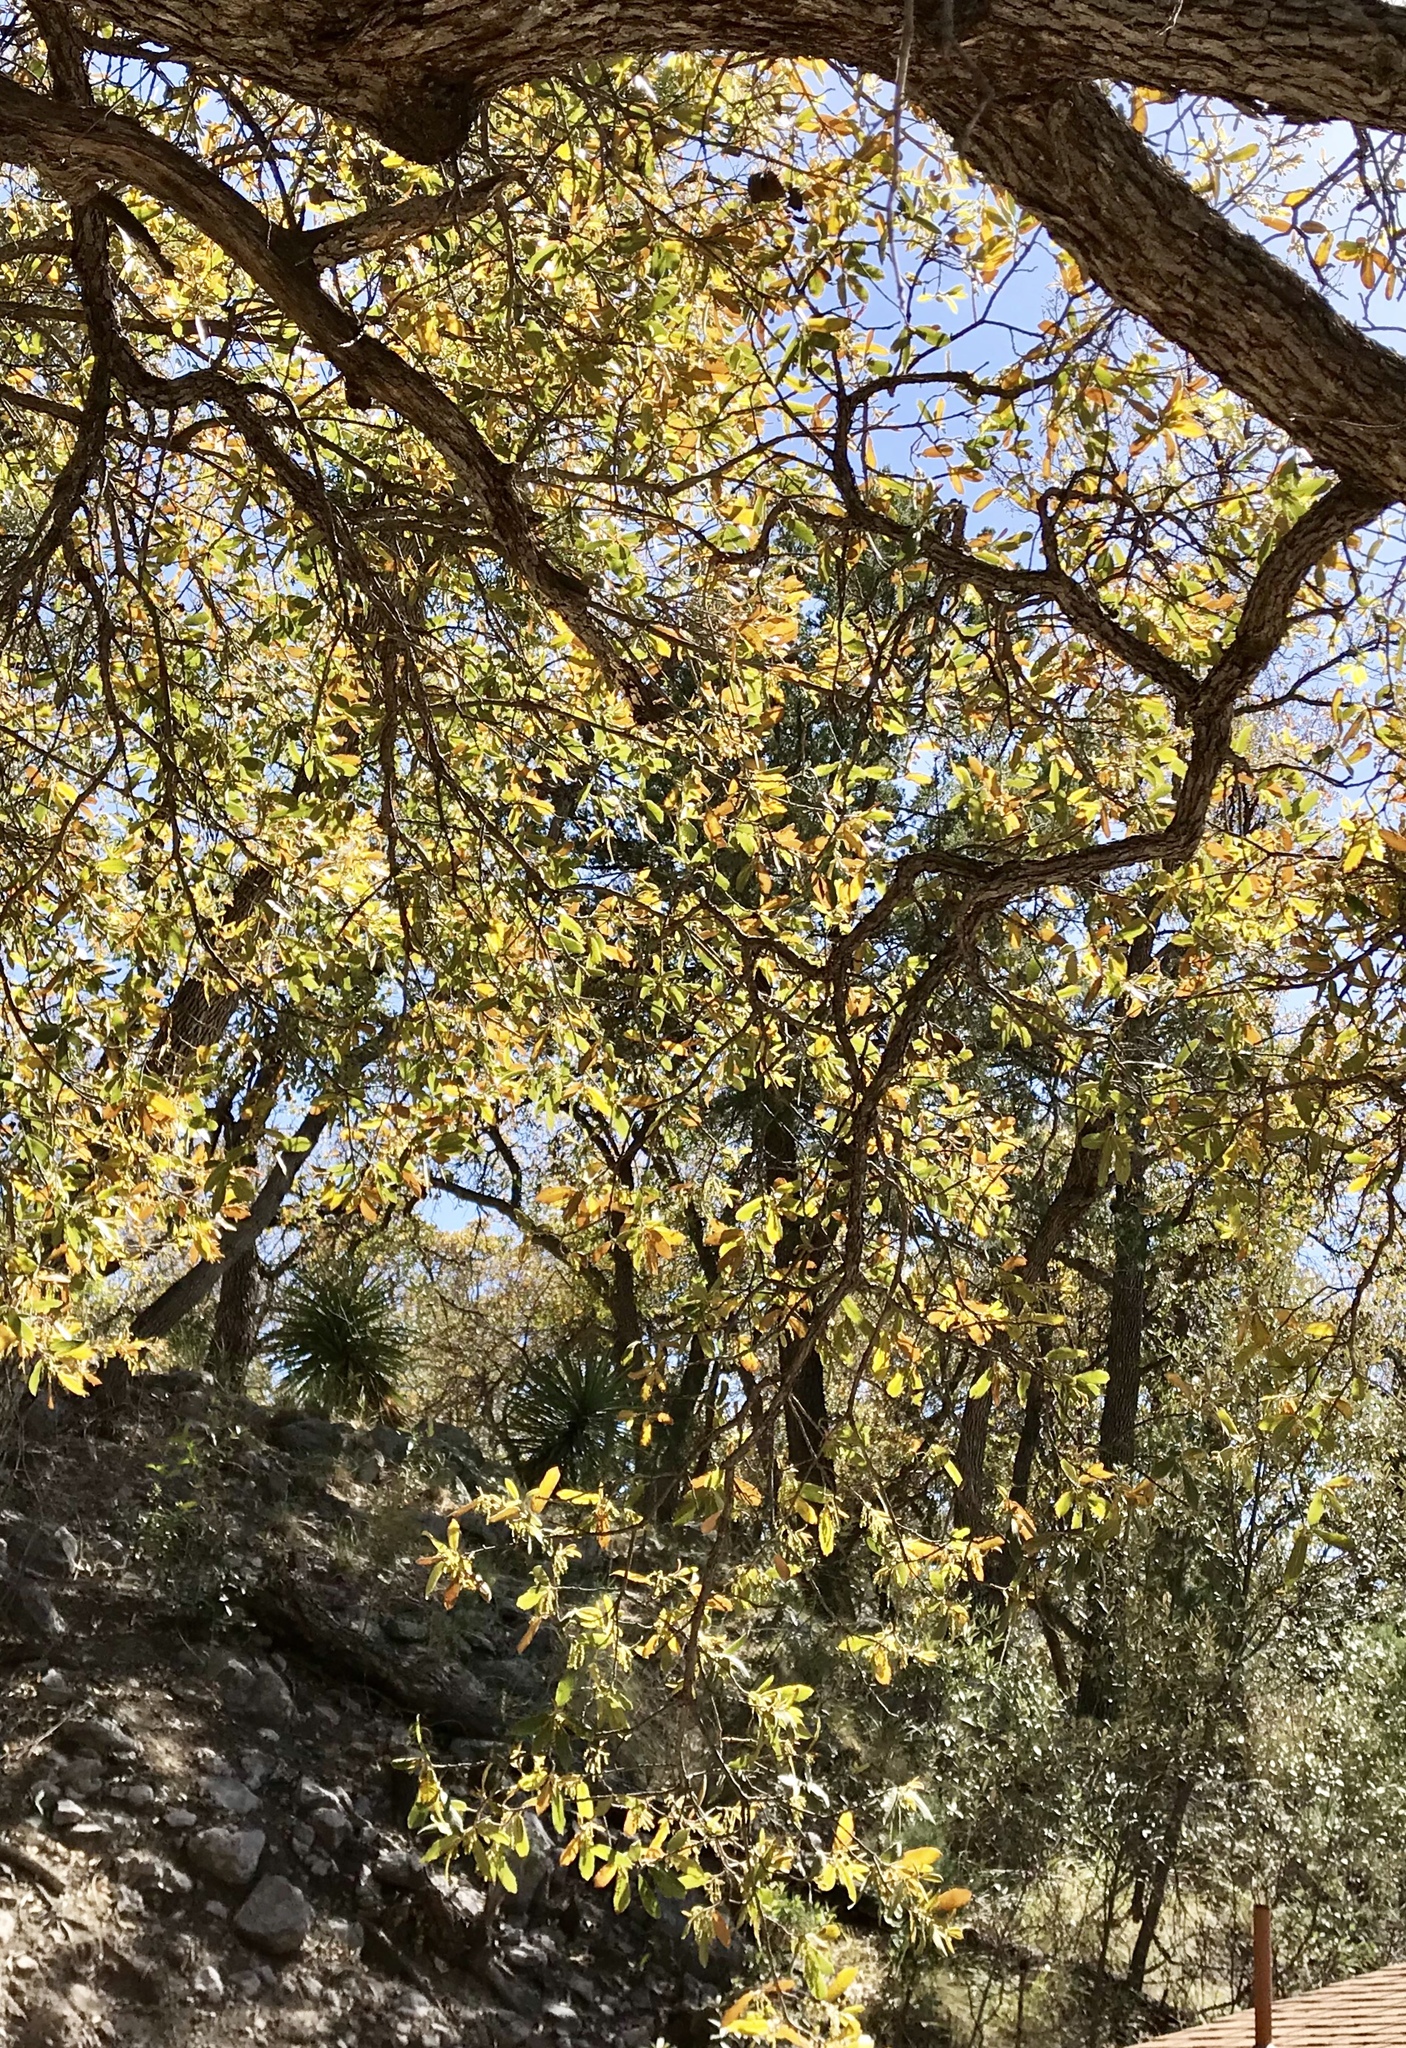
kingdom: Plantae
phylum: Tracheophyta
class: Magnoliopsida
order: Fagales
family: Fagaceae
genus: Quercus
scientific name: Quercus arizonica
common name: Arizona white oak
